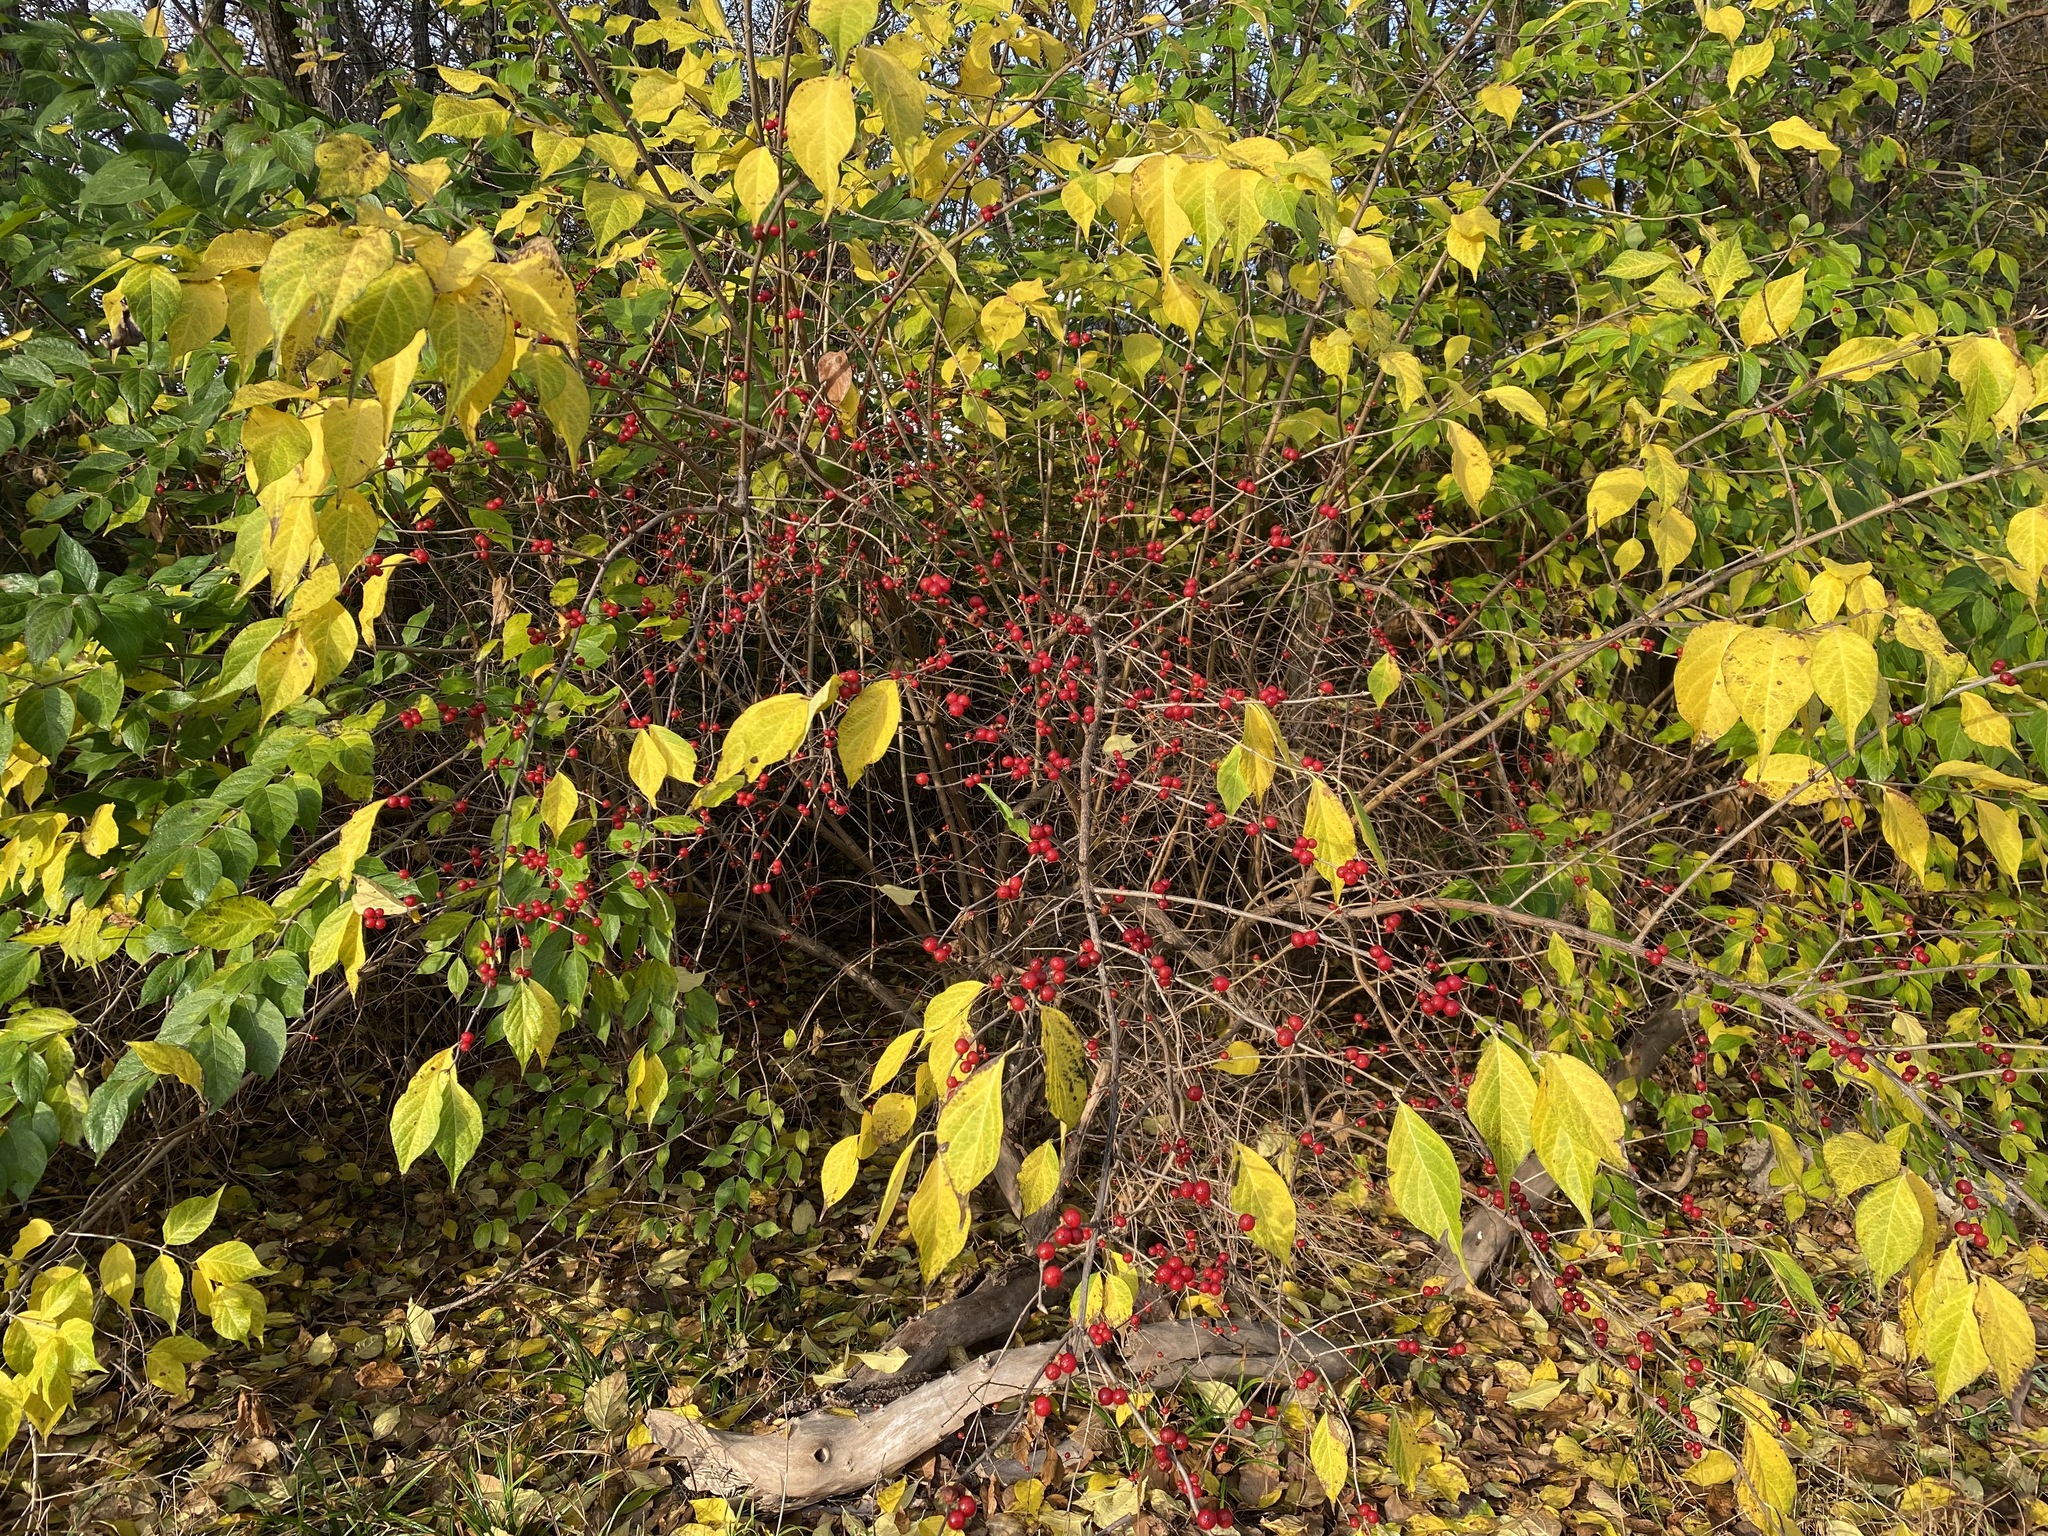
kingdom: Plantae
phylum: Tracheophyta
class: Magnoliopsida
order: Dipsacales
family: Caprifoliaceae
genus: Lonicera
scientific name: Lonicera maackii
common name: Amur honeysuckle
